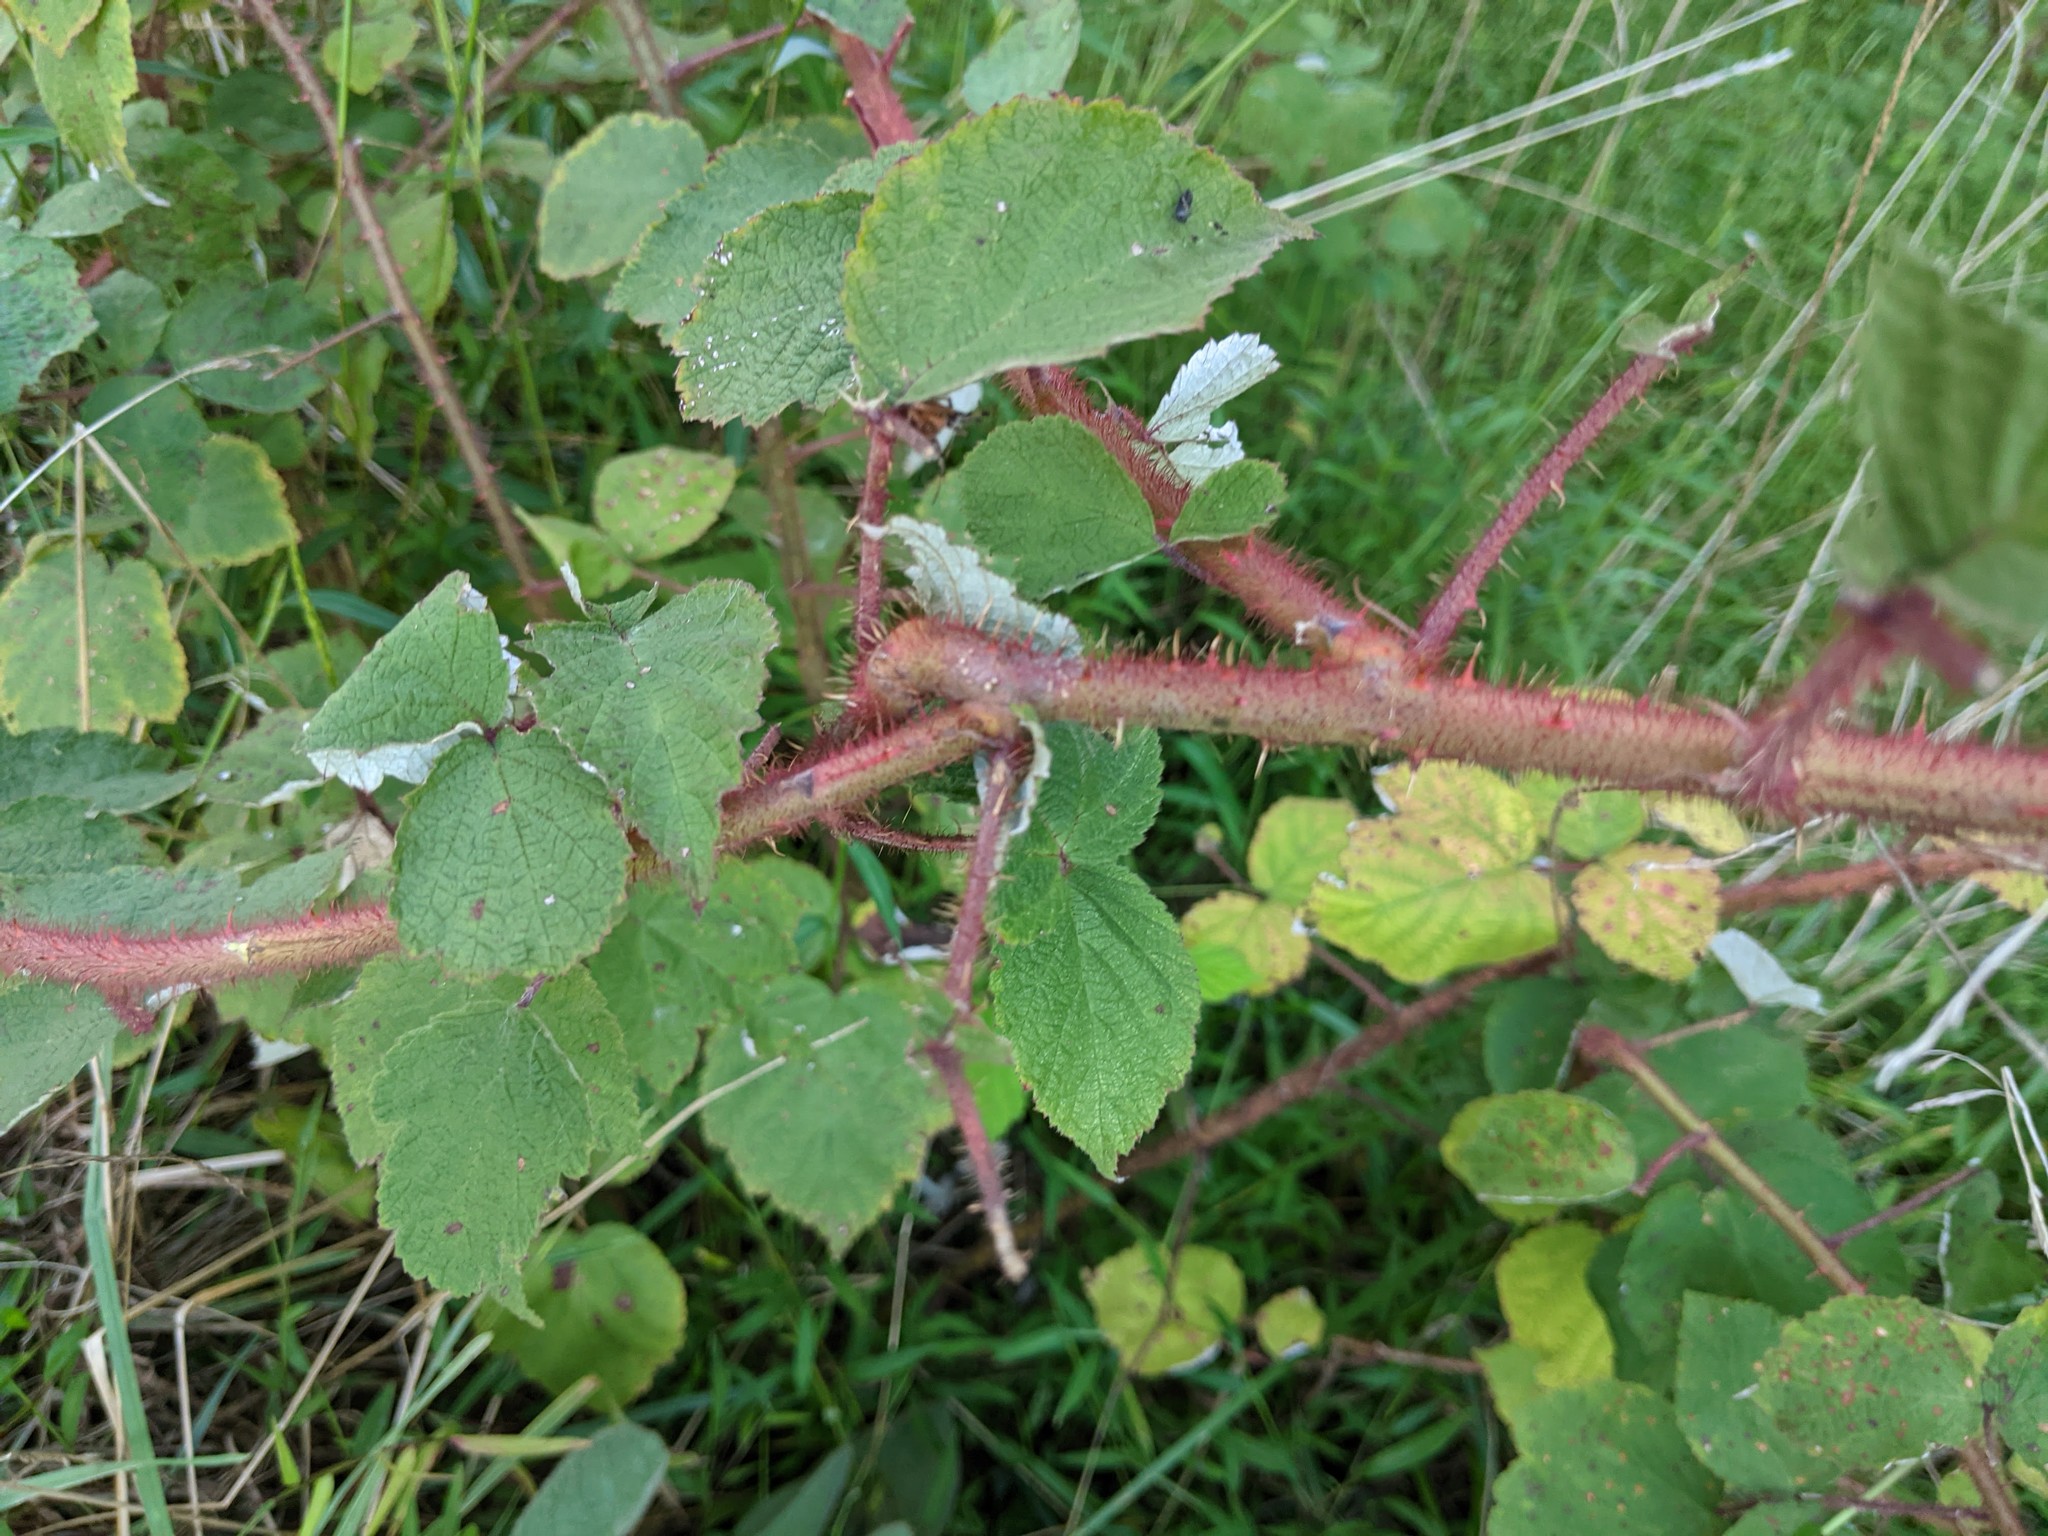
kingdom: Plantae
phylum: Tracheophyta
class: Magnoliopsida
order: Rosales
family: Rosaceae
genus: Rubus
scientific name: Rubus phoenicolasius
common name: Japanese wineberry
